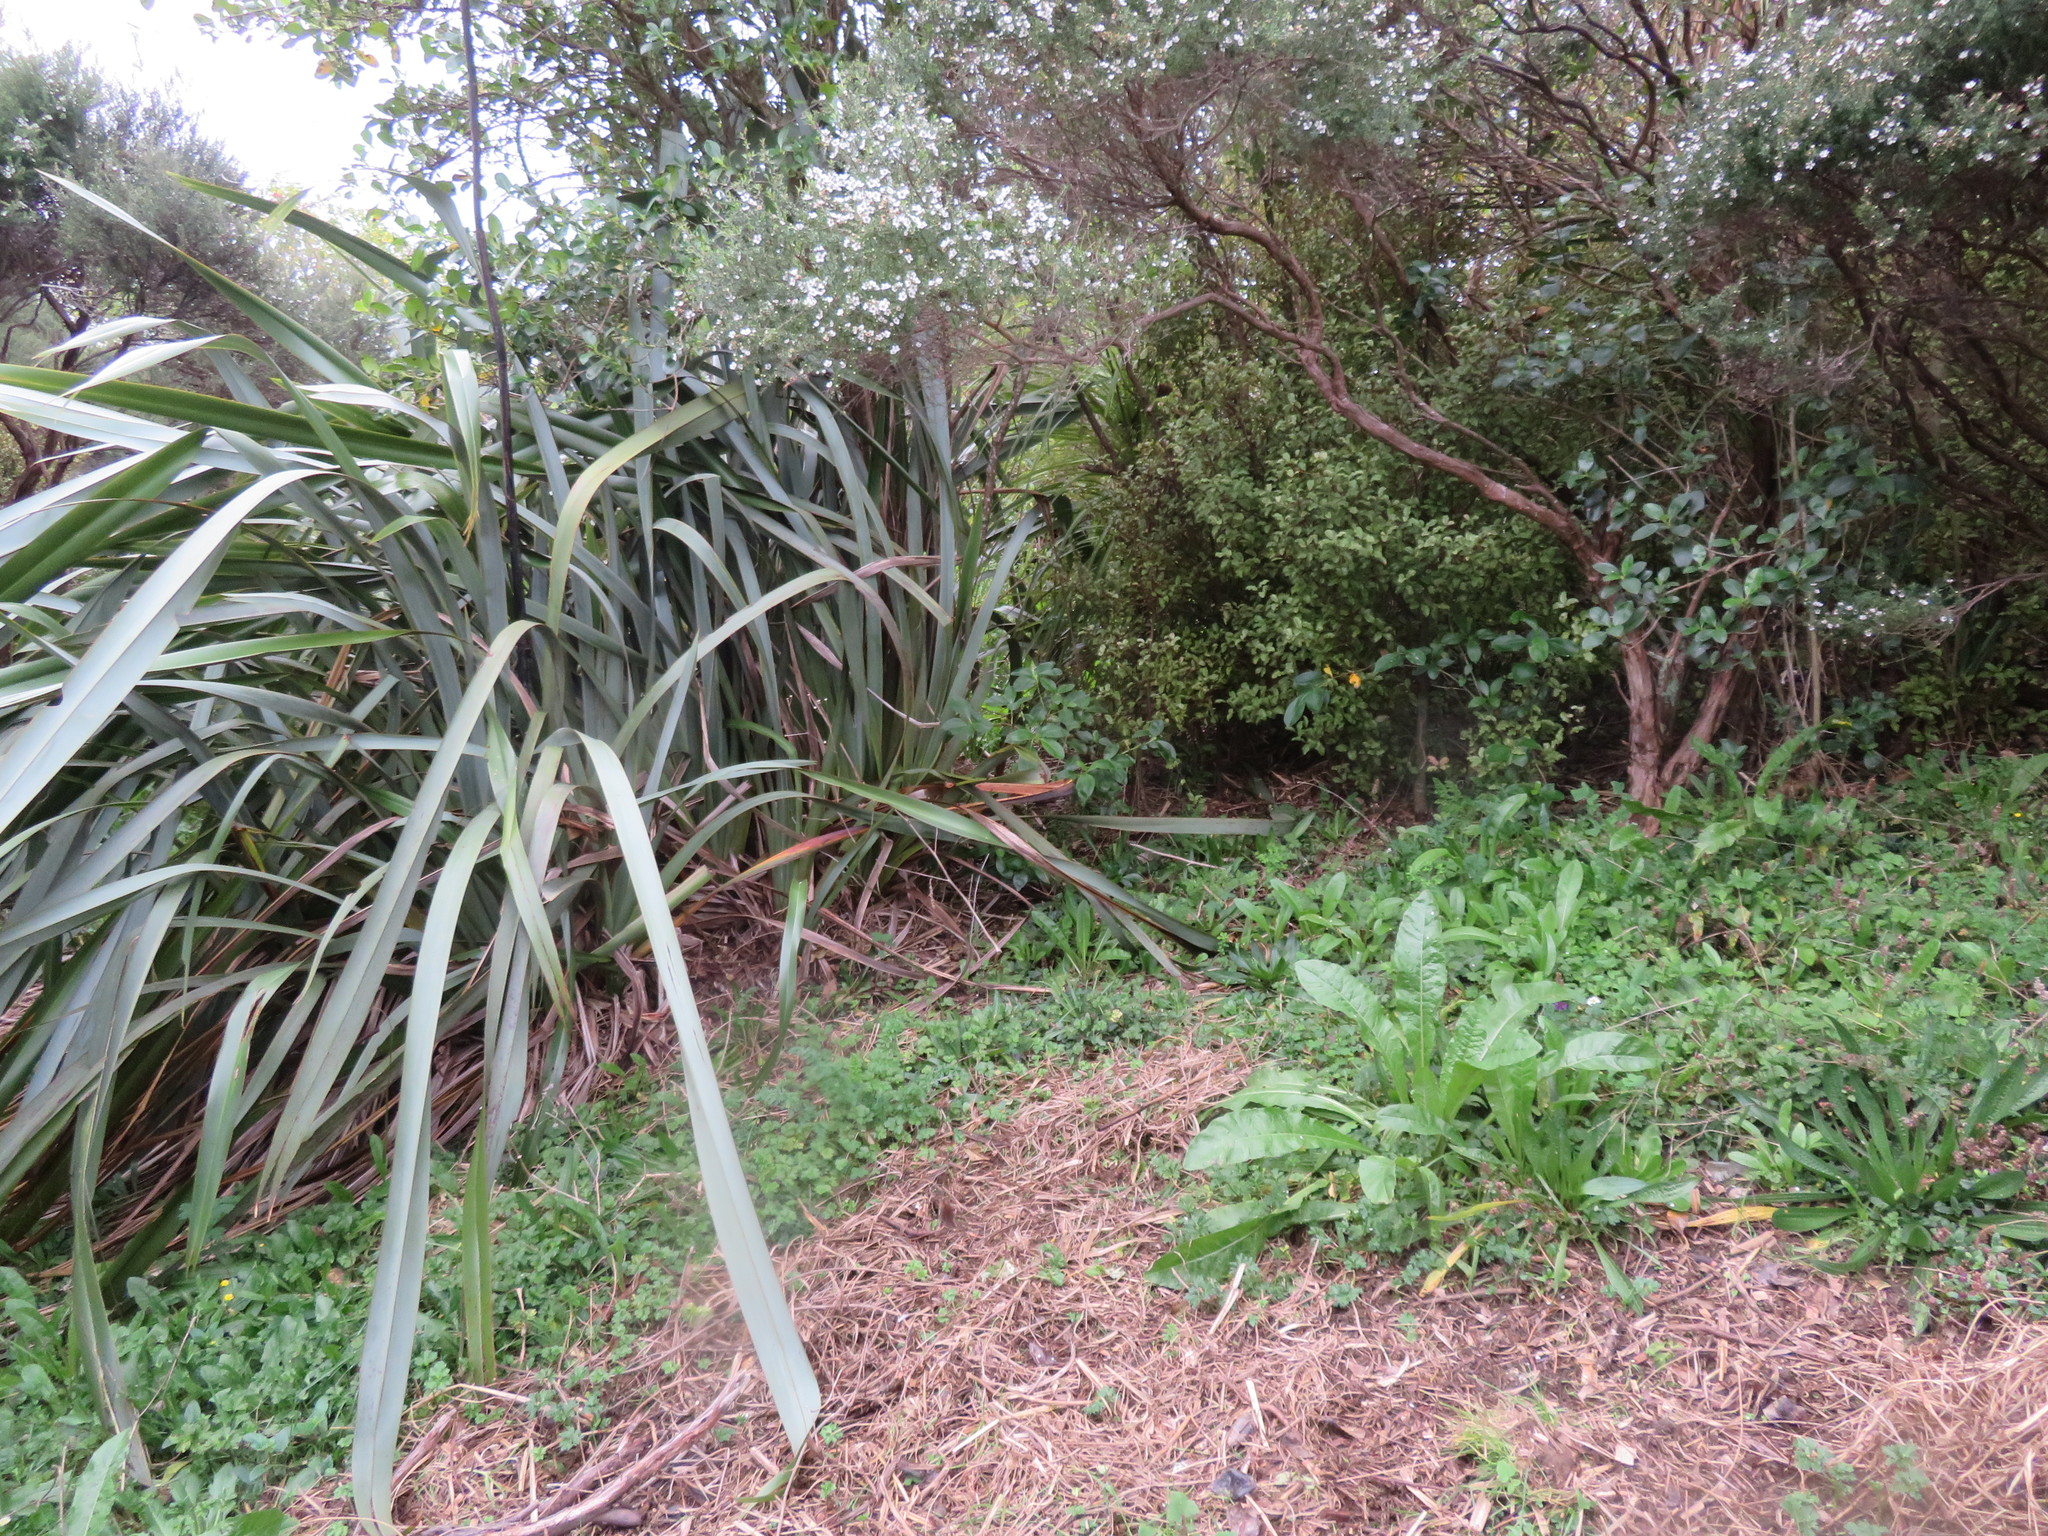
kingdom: Plantae
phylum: Tracheophyta
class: Magnoliopsida
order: Asterales
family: Asteraceae
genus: Helminthotheca
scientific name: Helminthotheca echioides
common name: Ox-tongue
